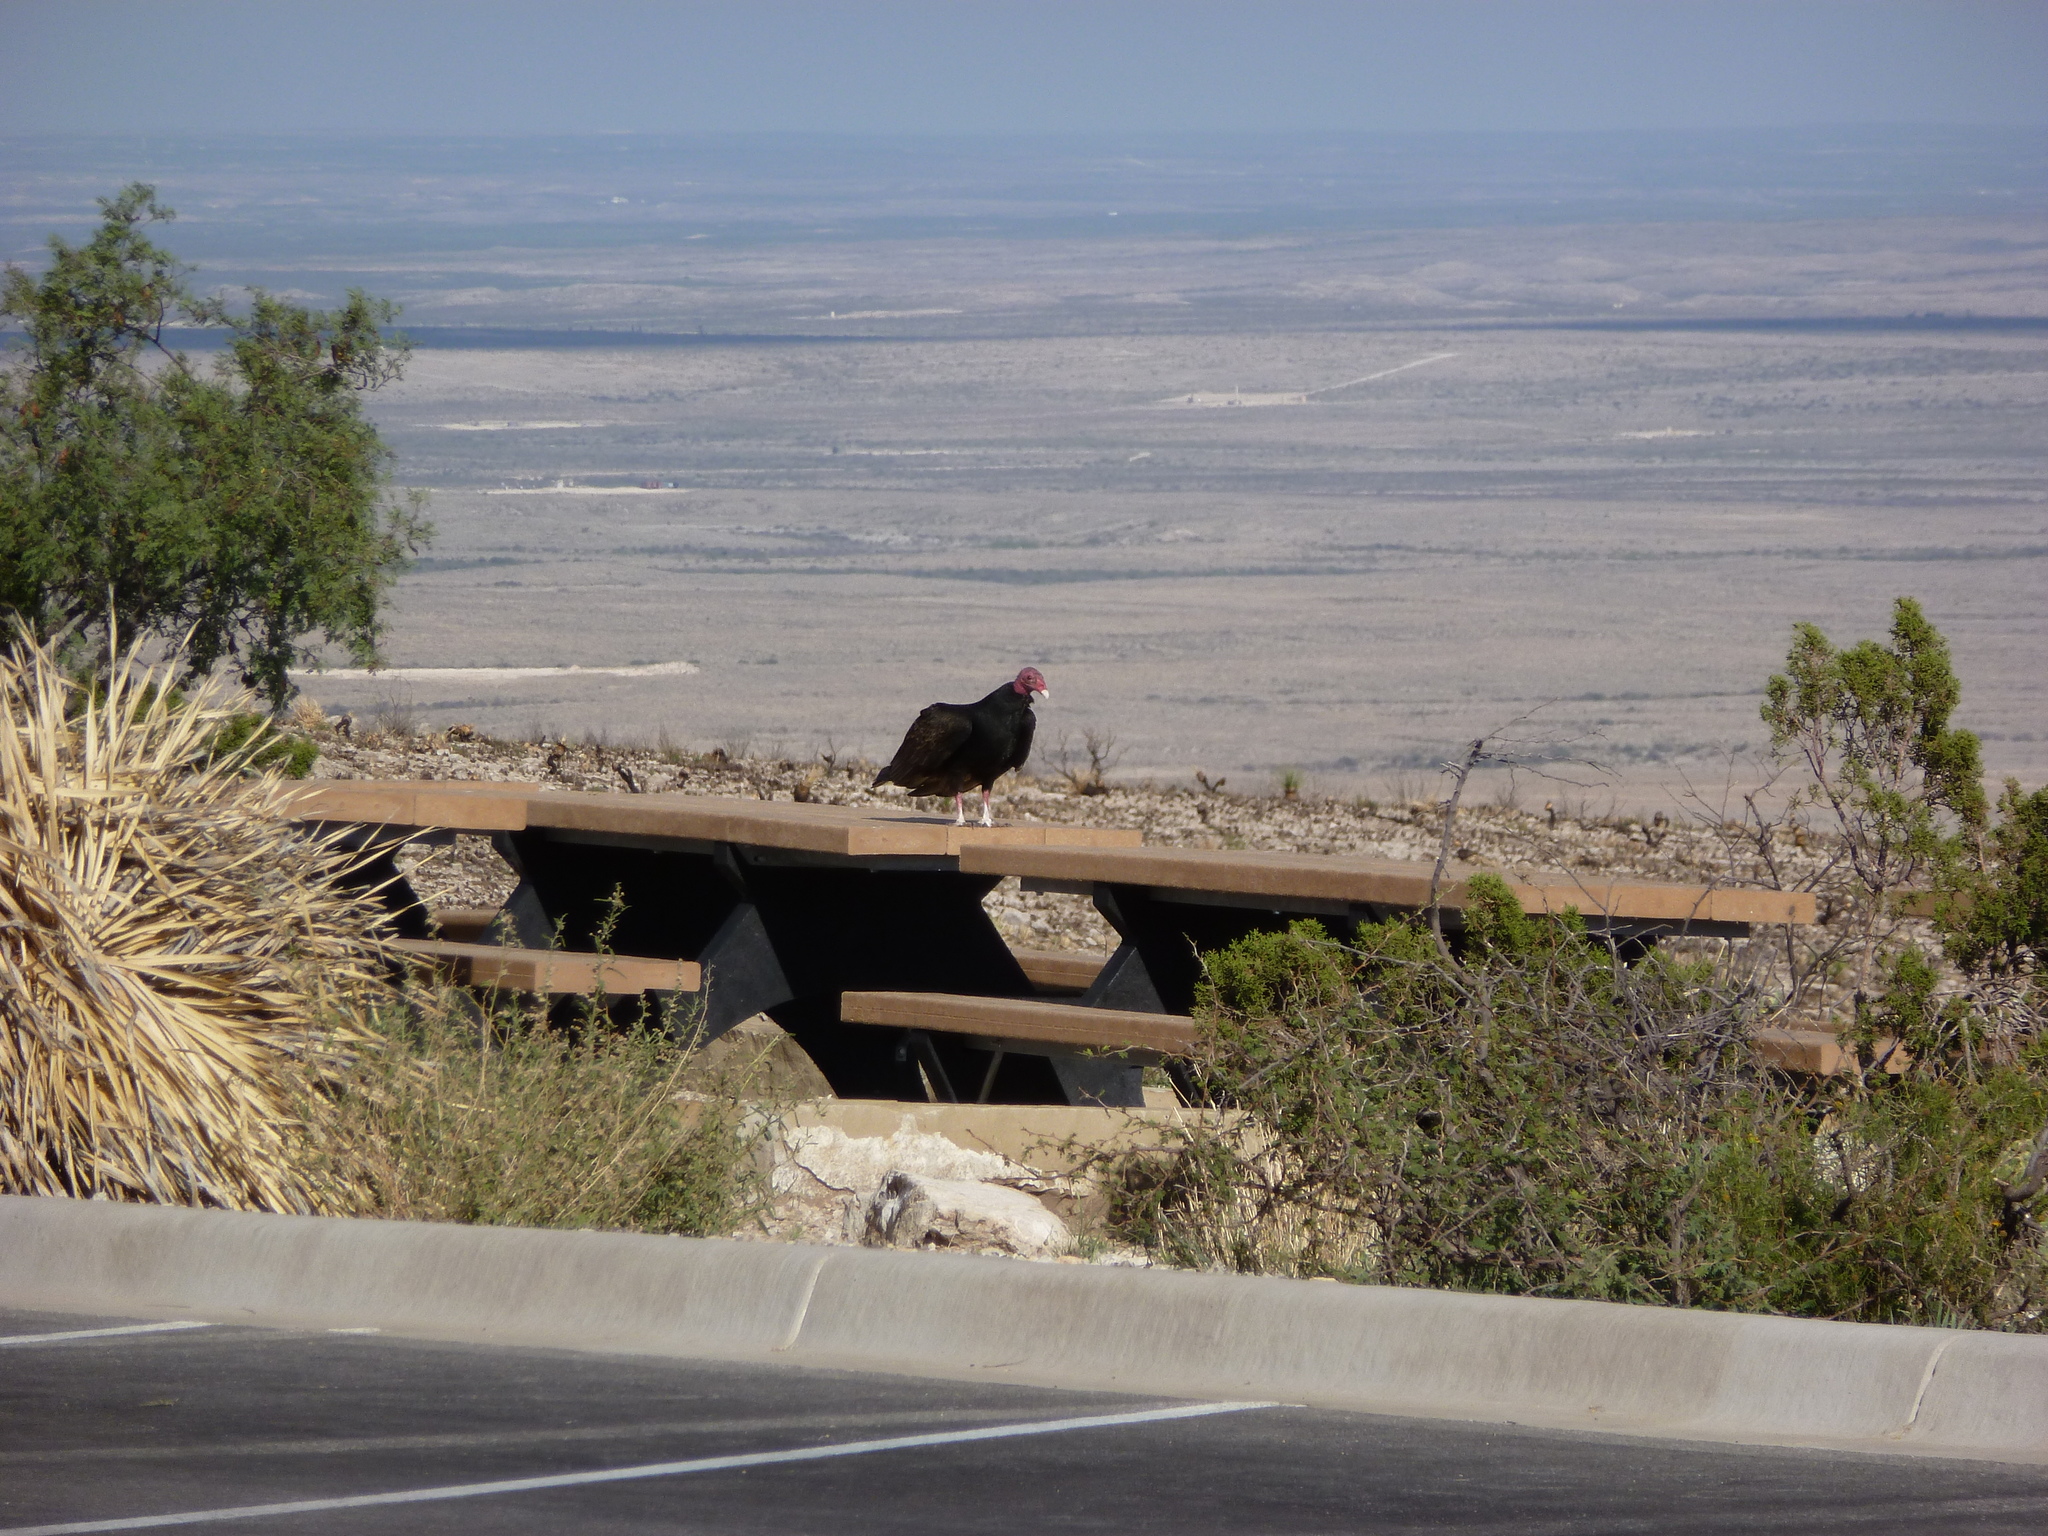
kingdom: Animalia
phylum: Chordata
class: Aves
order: Accipitriformes
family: Cathartidae
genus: Cathartes
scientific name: Cathartes aura
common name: Turkey vulture
